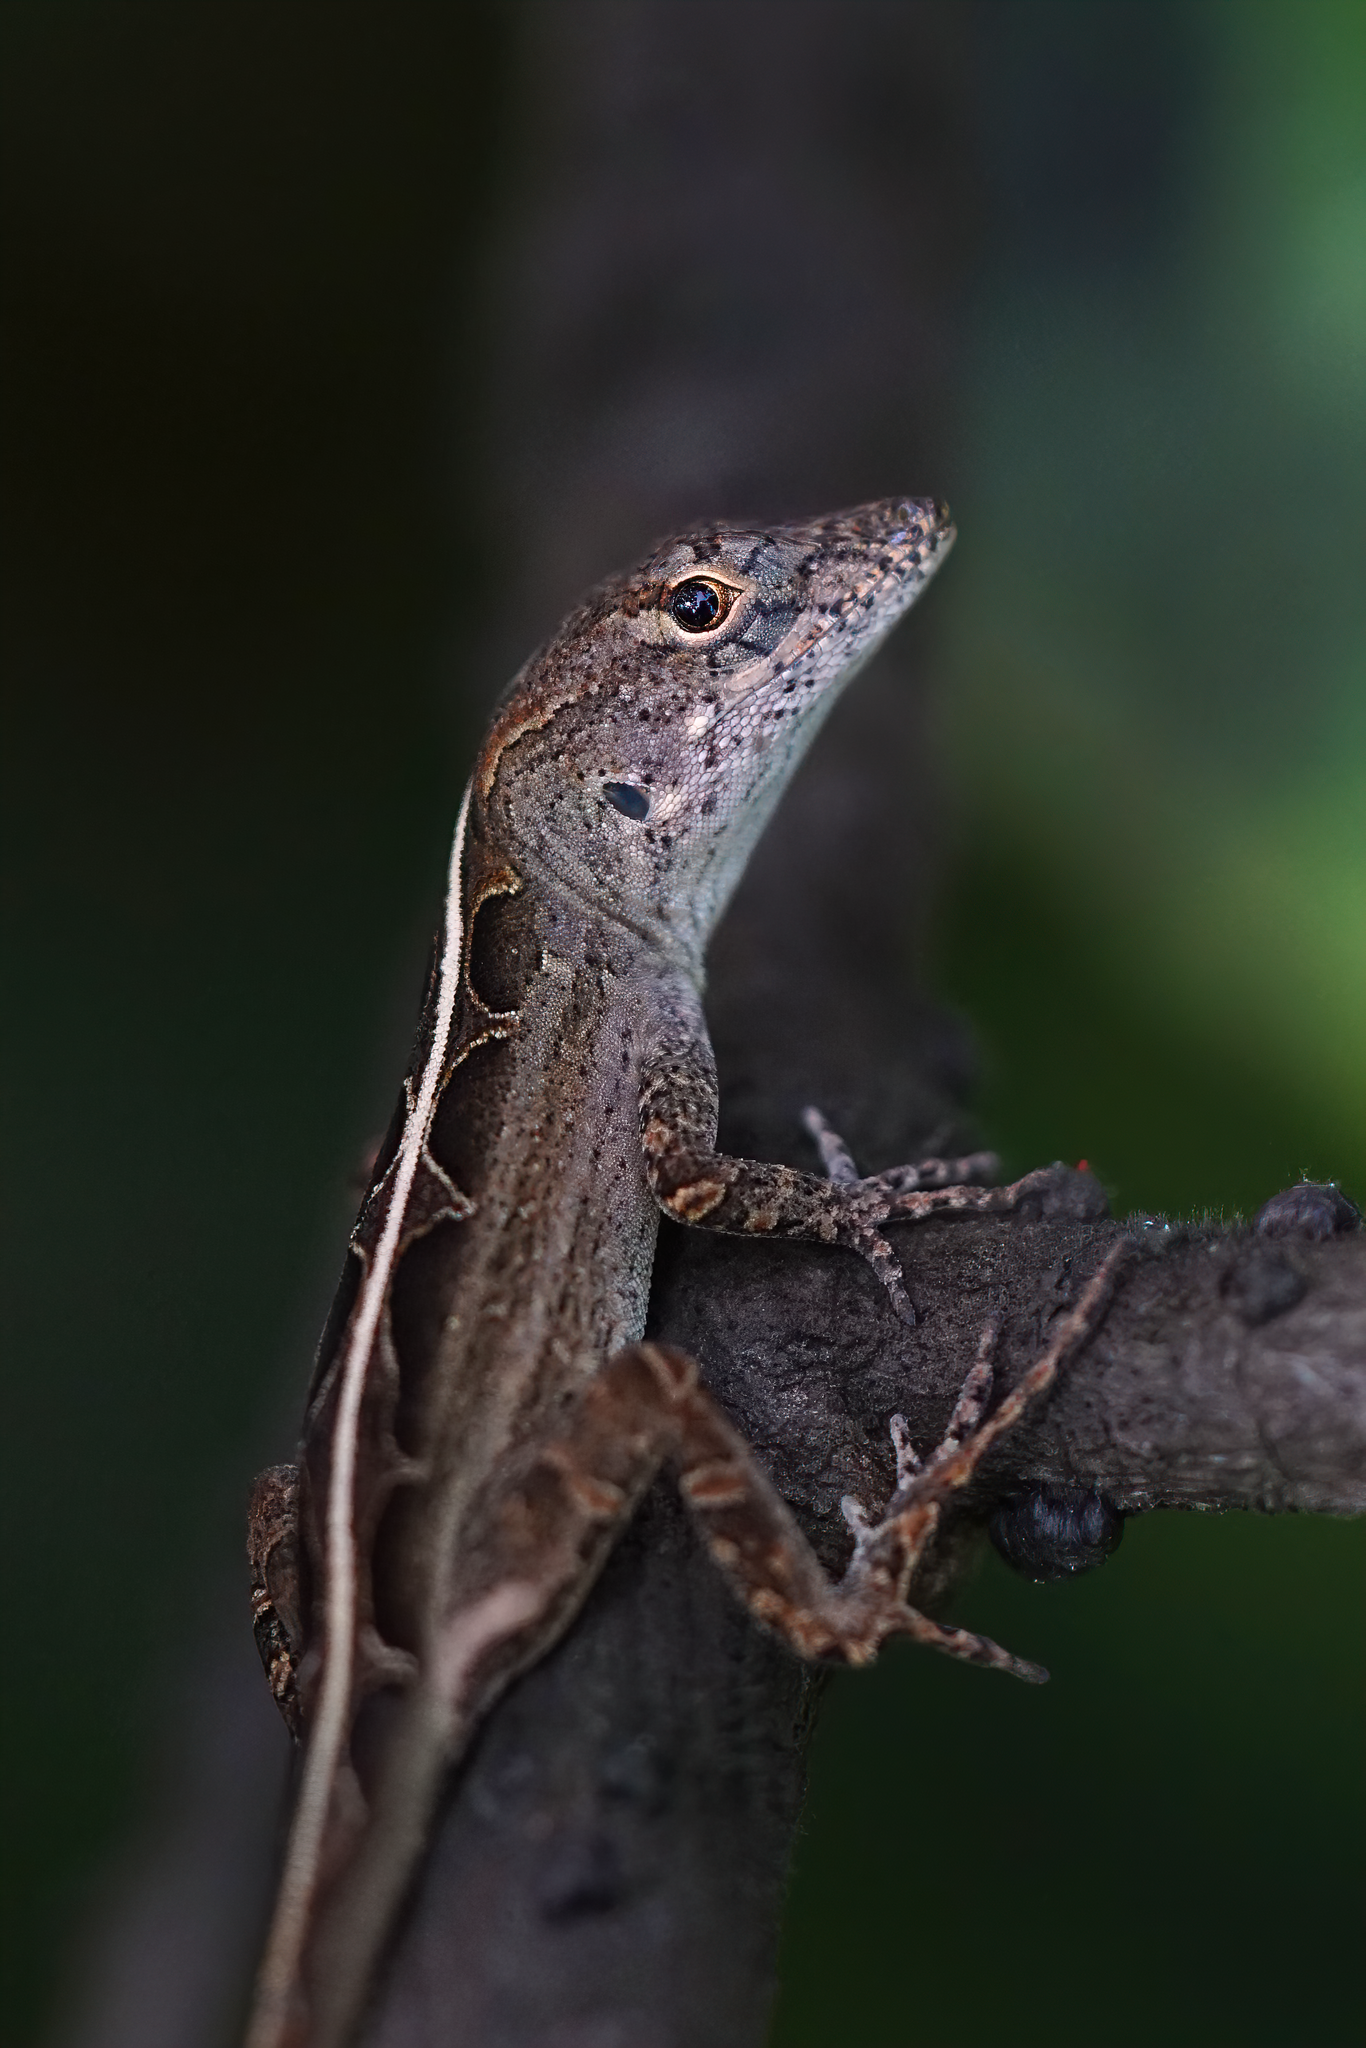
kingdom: Animalia
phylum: Chordata
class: Squamata
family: Dactyloidae
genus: Anolis
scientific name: Anolis sagrei
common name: Brown anole
